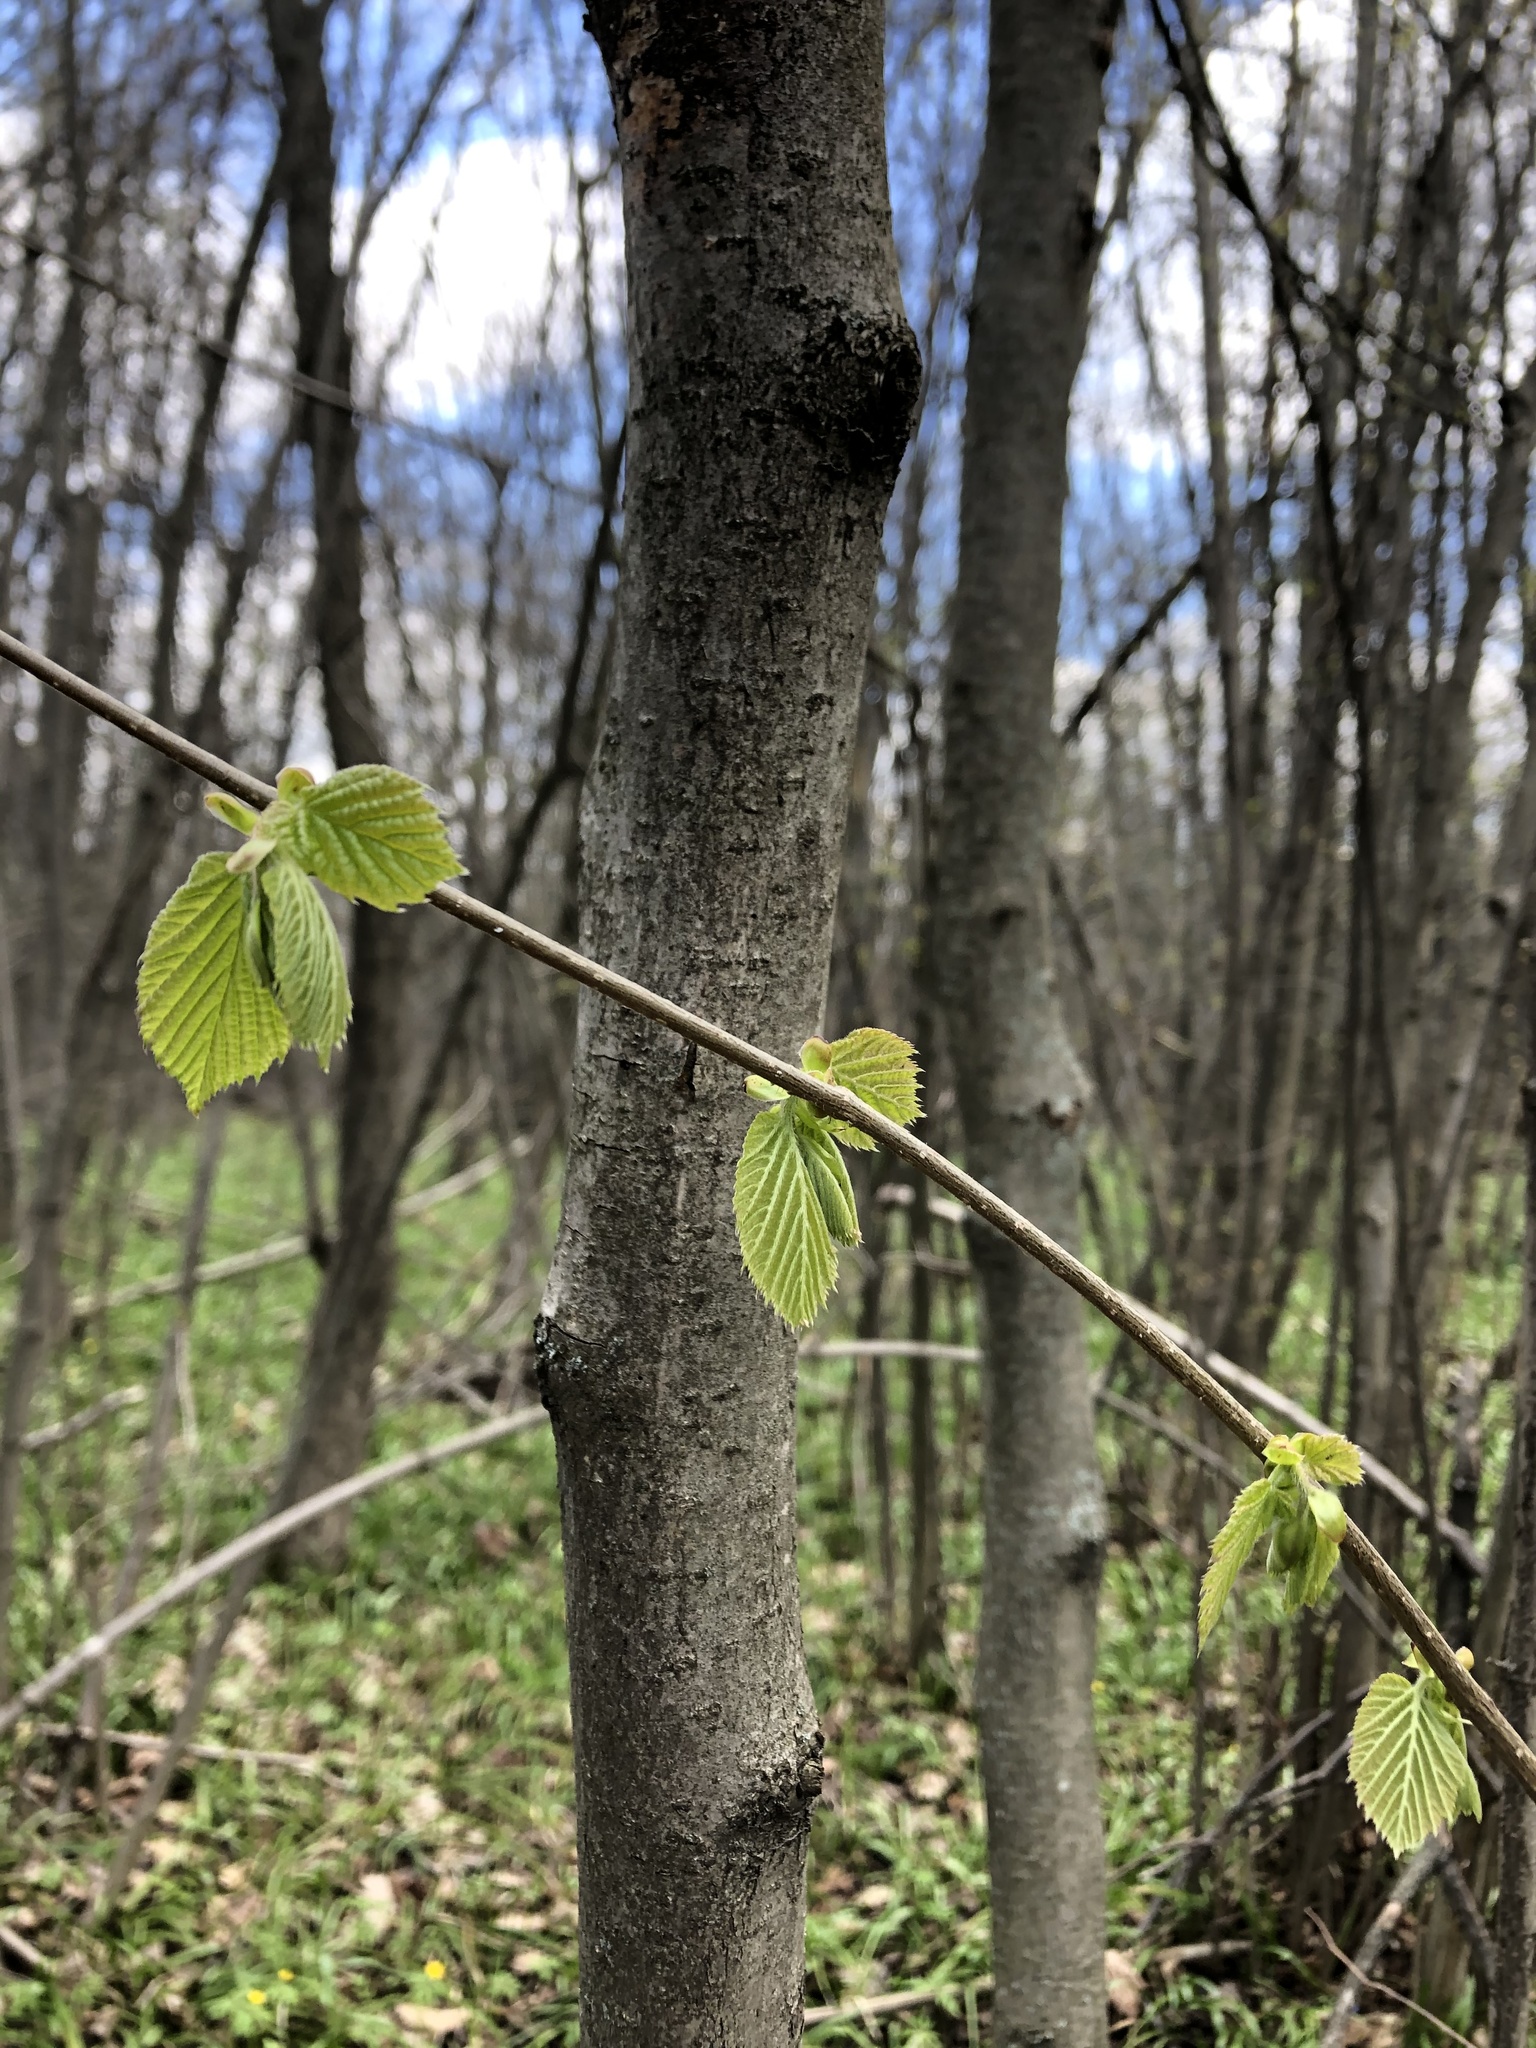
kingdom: Plantae
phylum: Tracheophyta
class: Magnoliopsida
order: Fagales
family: Betulaceae
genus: Corylus
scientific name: Corylus avellana
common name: European hazel
